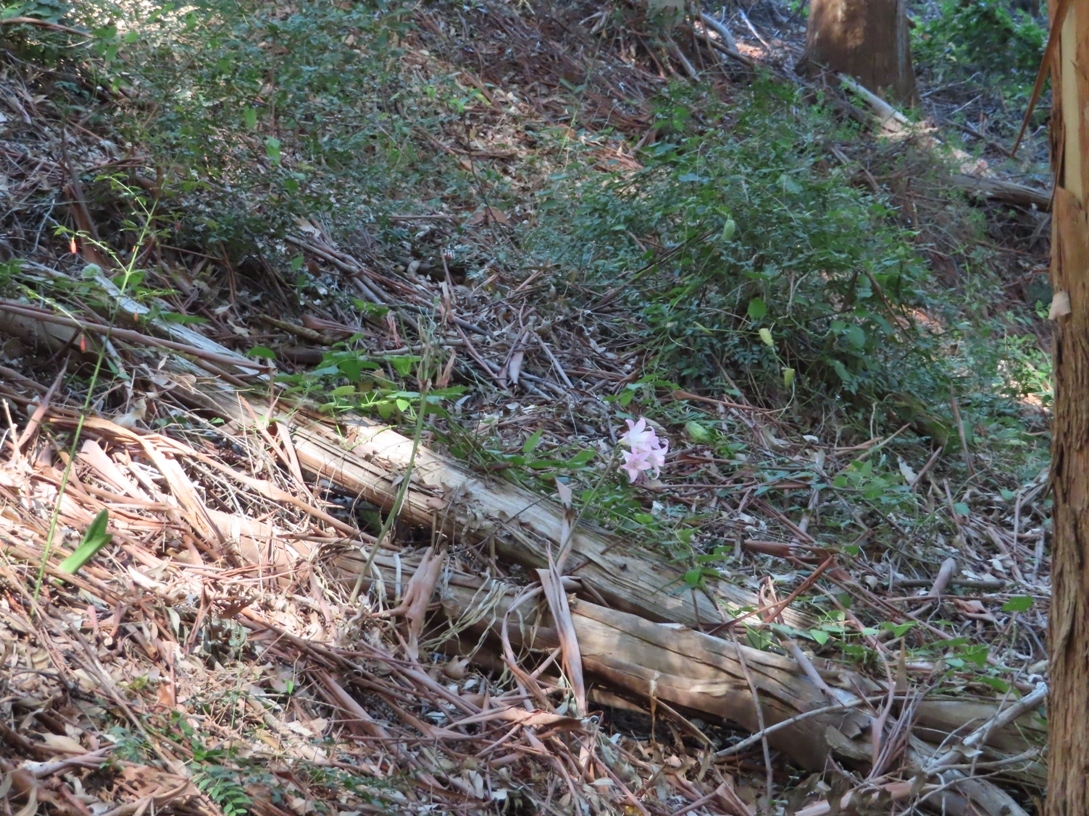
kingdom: Plantae
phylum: Tracheophyta
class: Liliopsida
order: Asparagales
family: Amaryllidaceae
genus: Amaryllis
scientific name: Amaryllis belladonna
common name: Jersey lily
